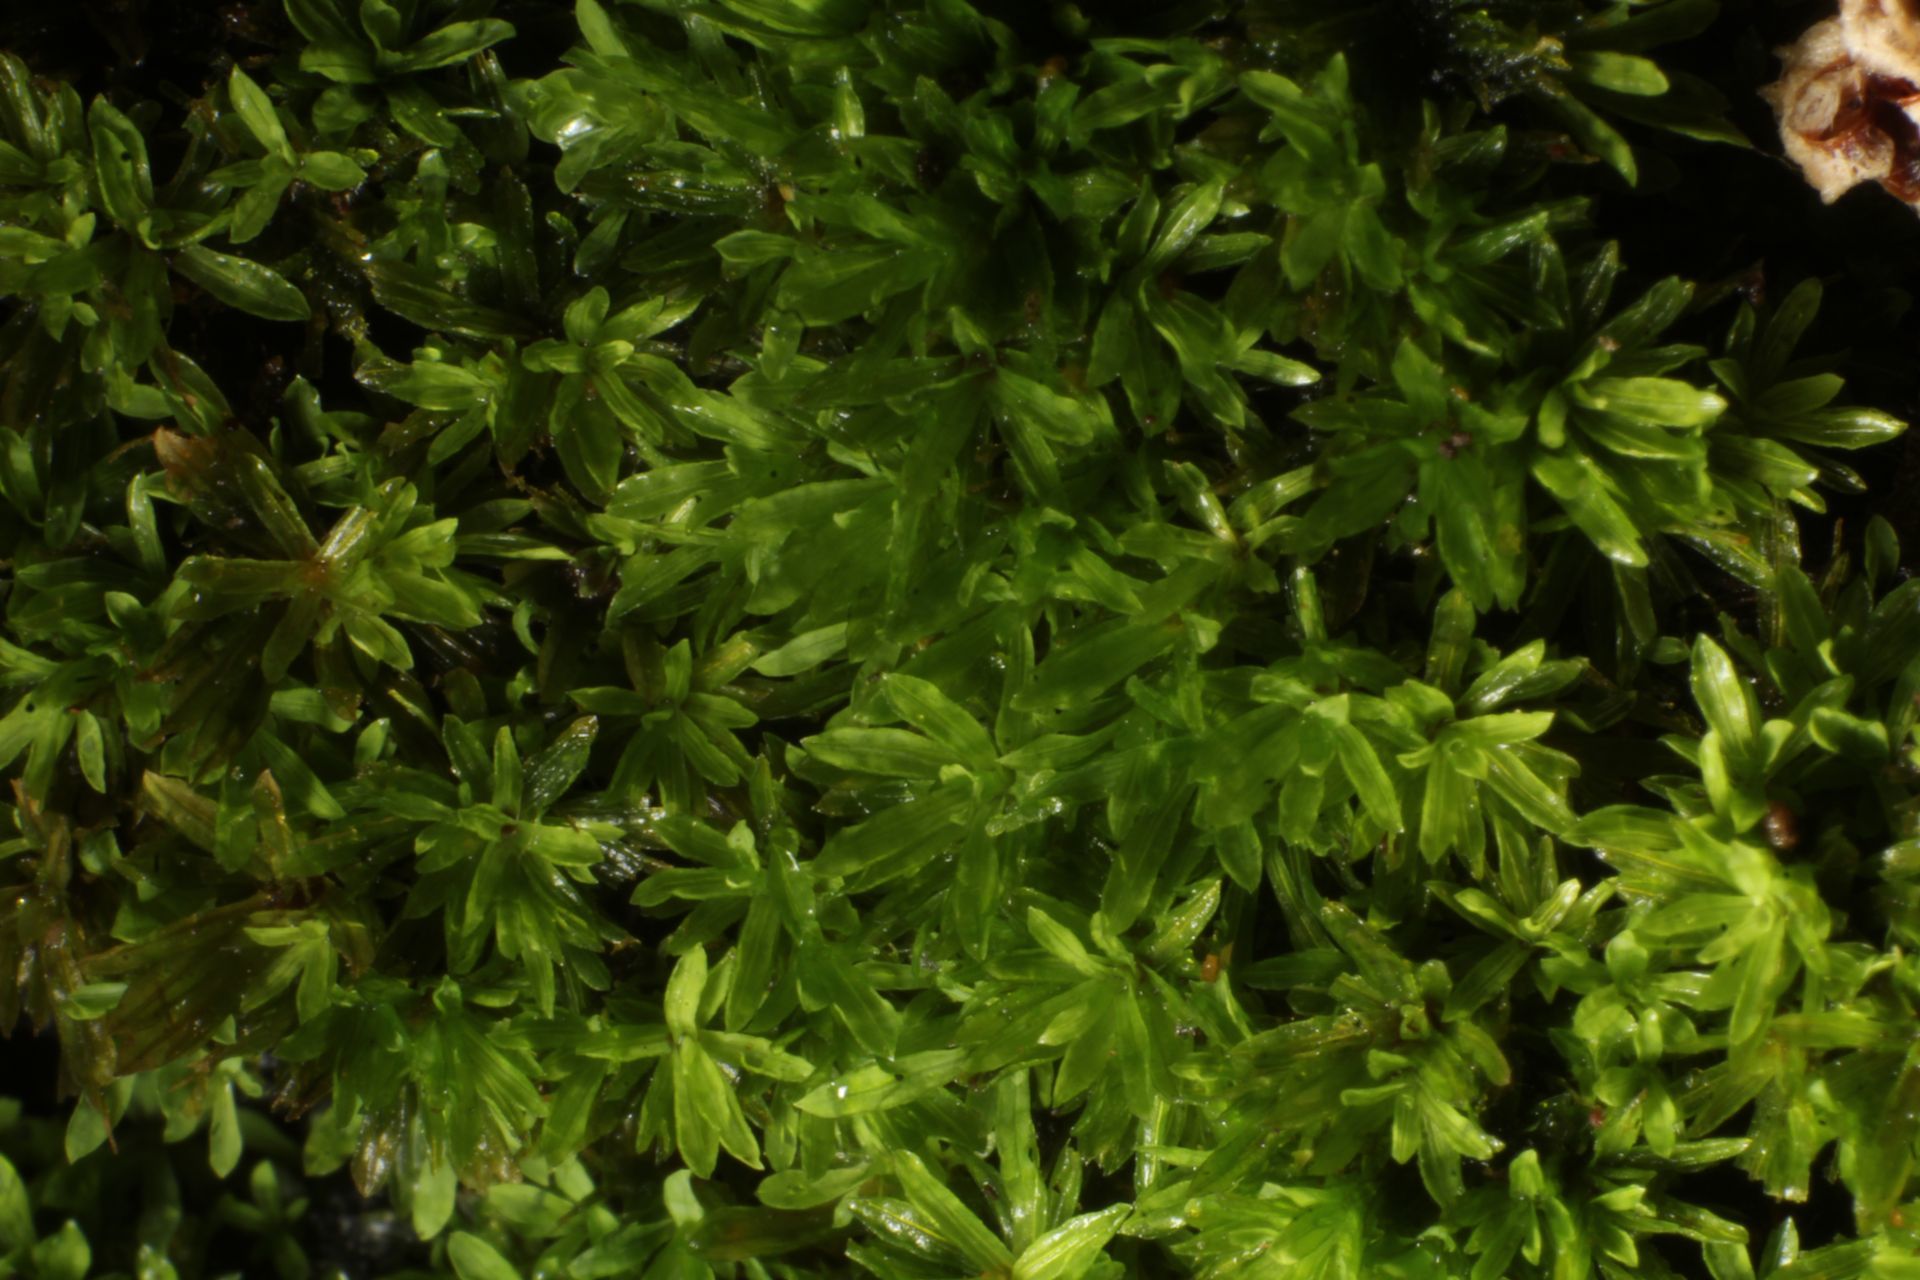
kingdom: Plantae
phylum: Bryophyta
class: Bryopsida
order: Pottiales
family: Pottiaceae
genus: Calymperastrum
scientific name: Calymperastrum latifolium
